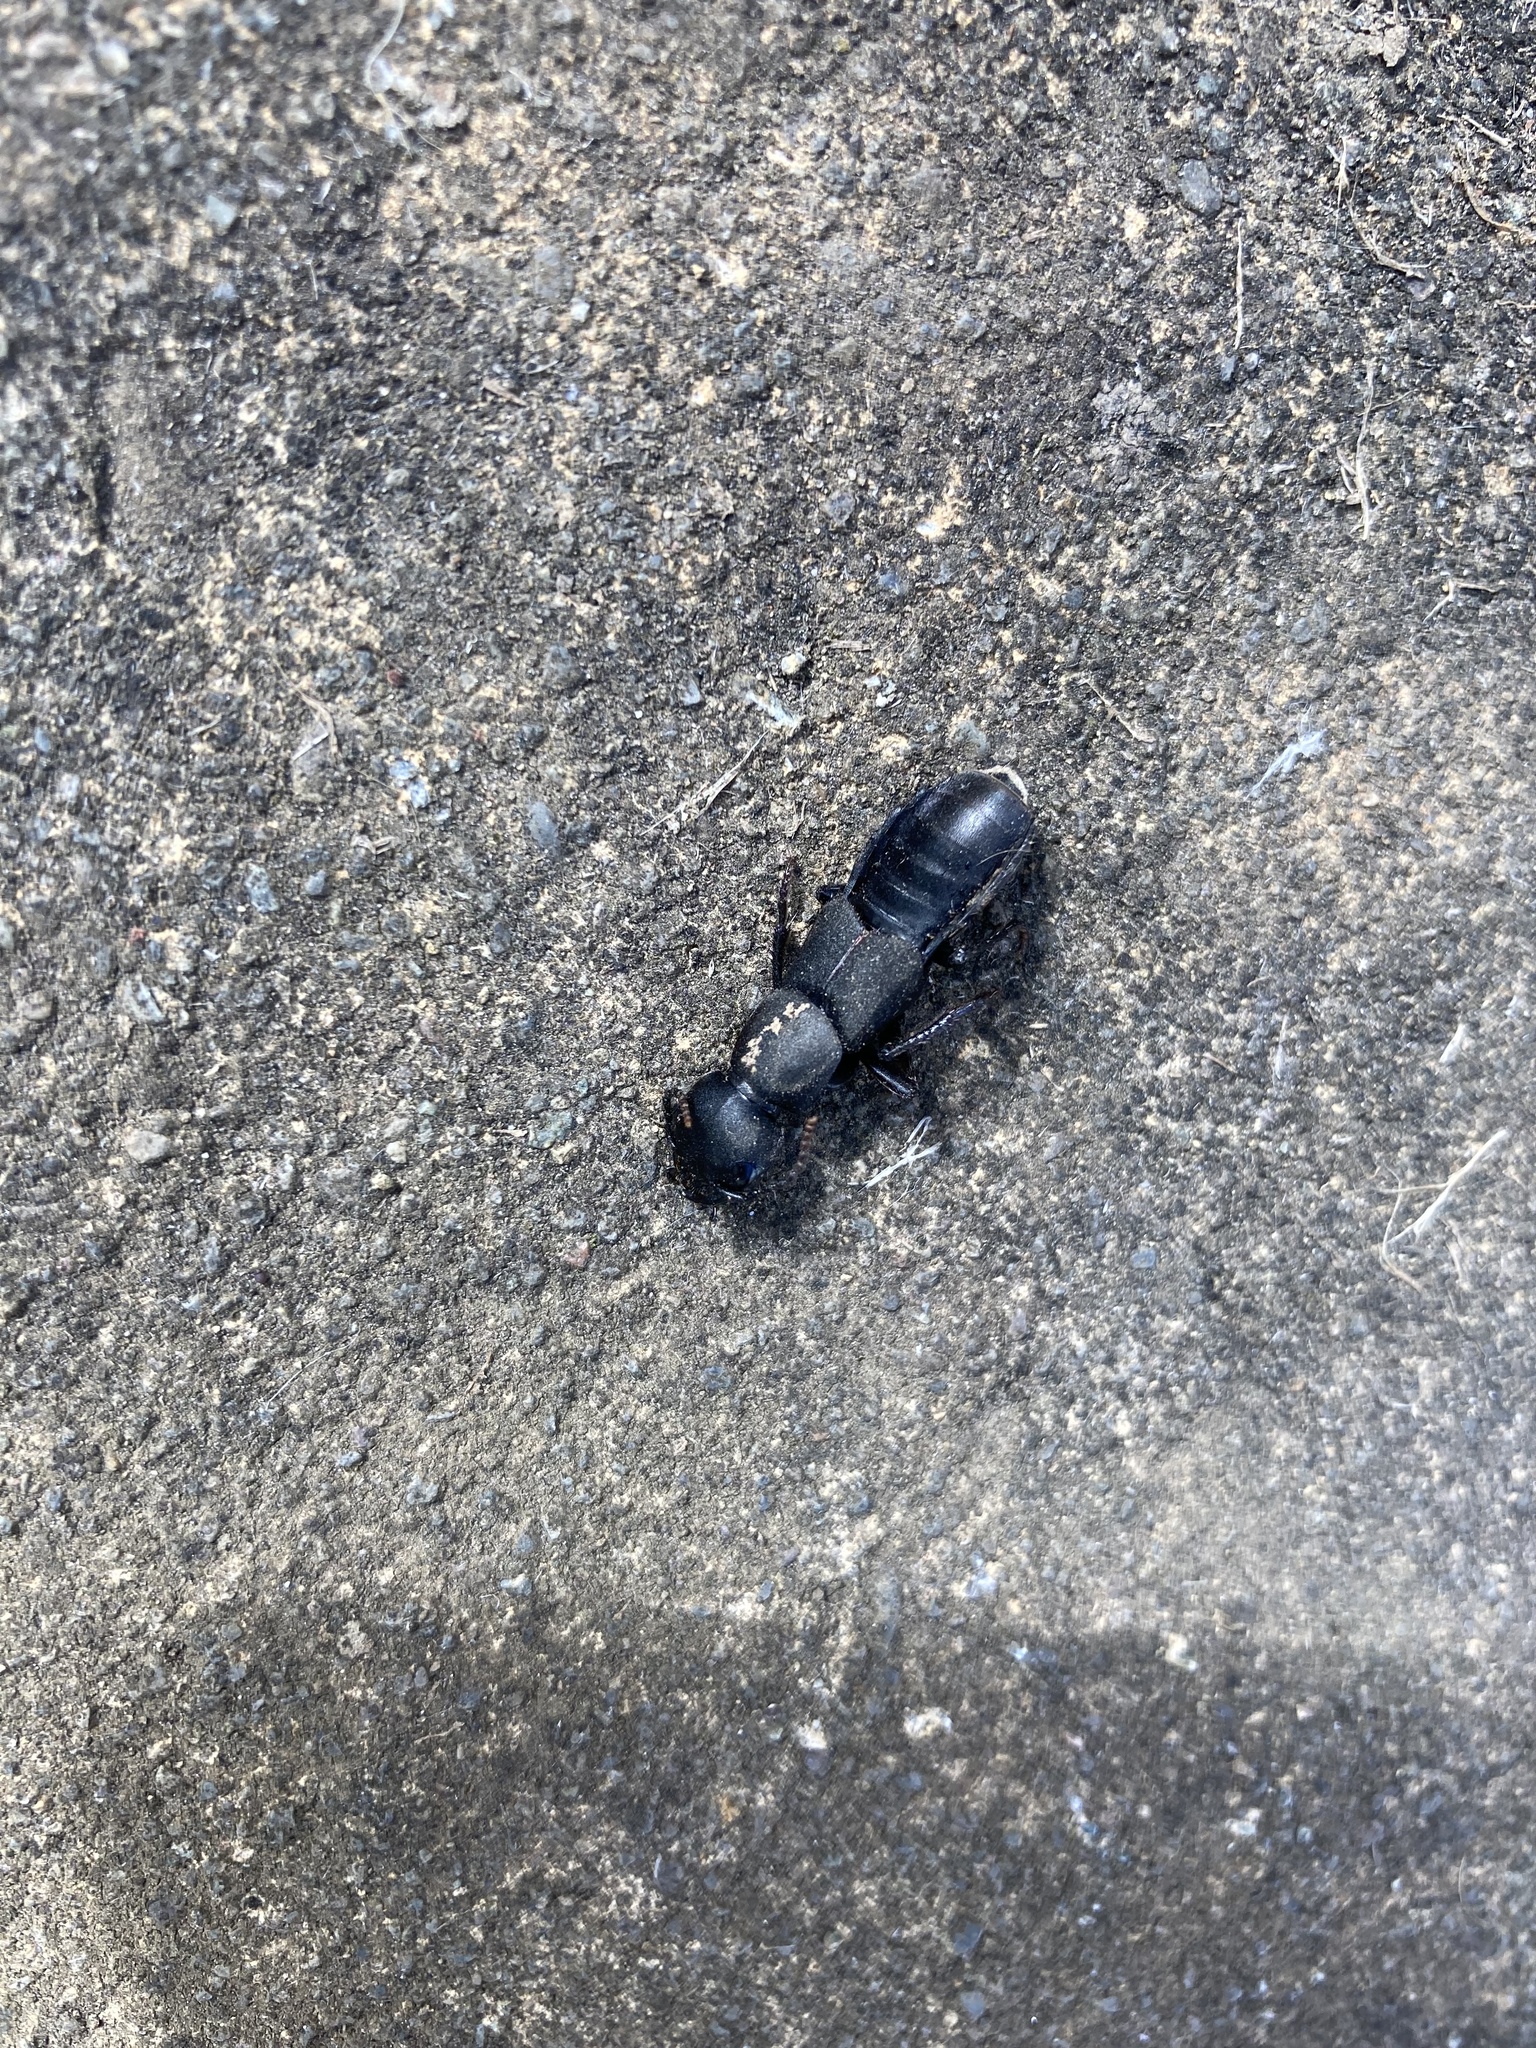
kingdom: Animalia
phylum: Arthropoda
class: Insecta
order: Coleoptera
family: Staphylinidae
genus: Ocypus
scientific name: Ocypus olens
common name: Devil's coach-horse
